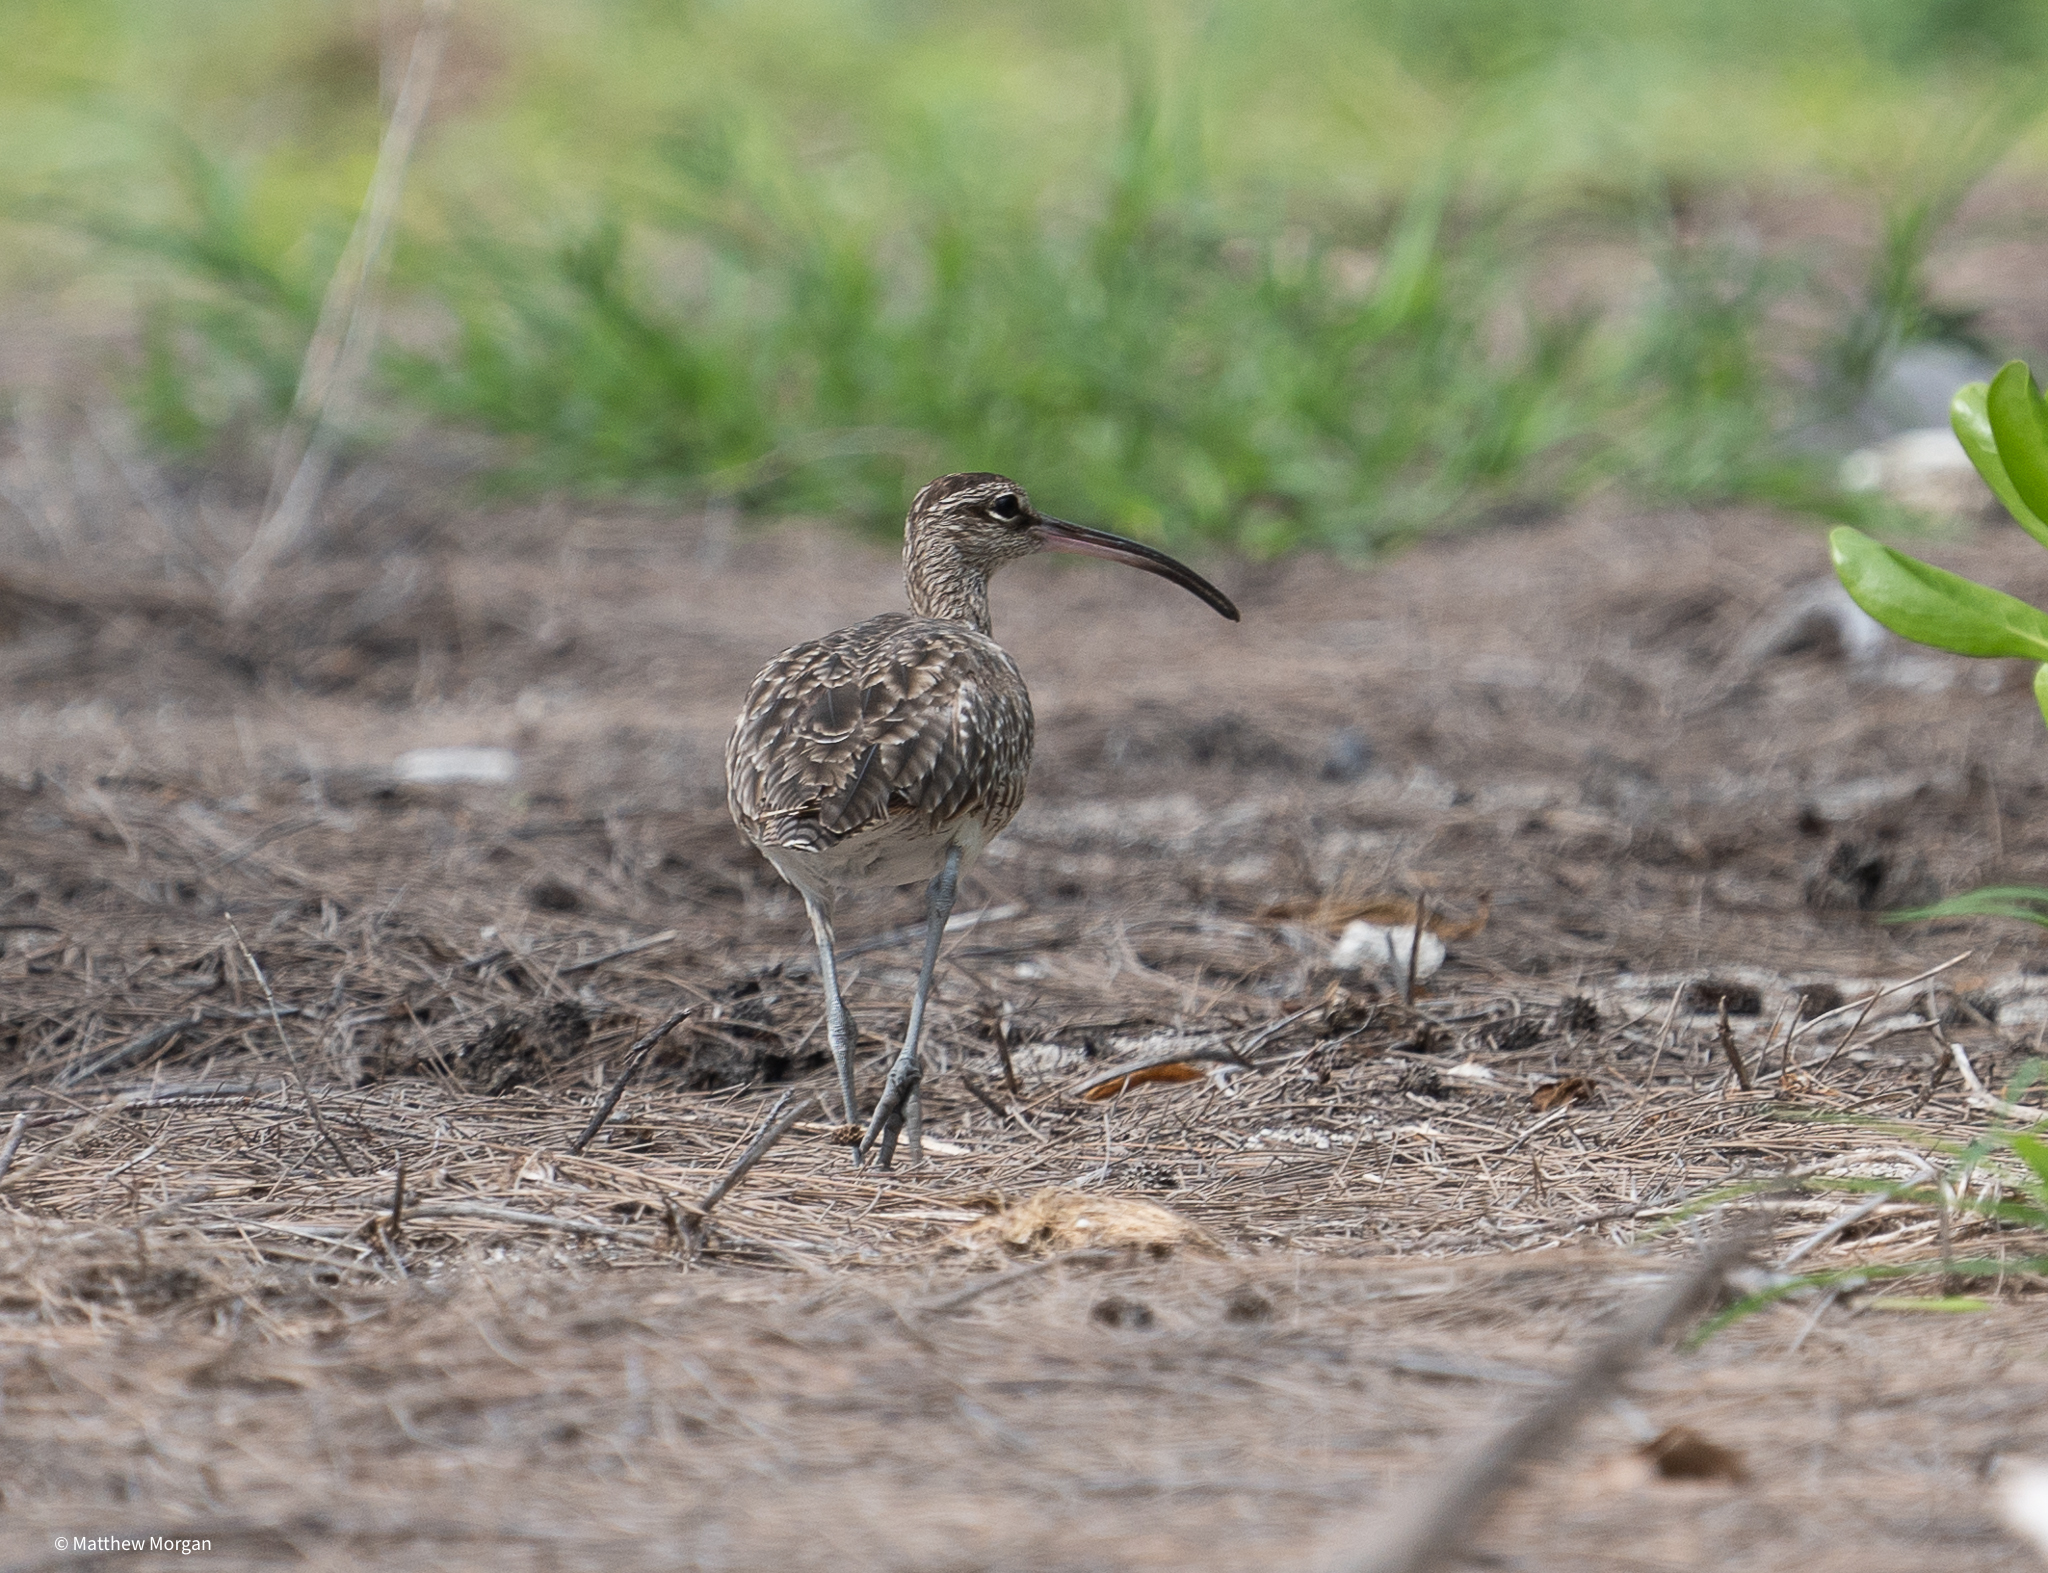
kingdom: Animalia
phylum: Chordata
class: Aves
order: Charadriiformes
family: Scolopacidae
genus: Numenius
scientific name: Numenius phaeopus
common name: Whimbrel
